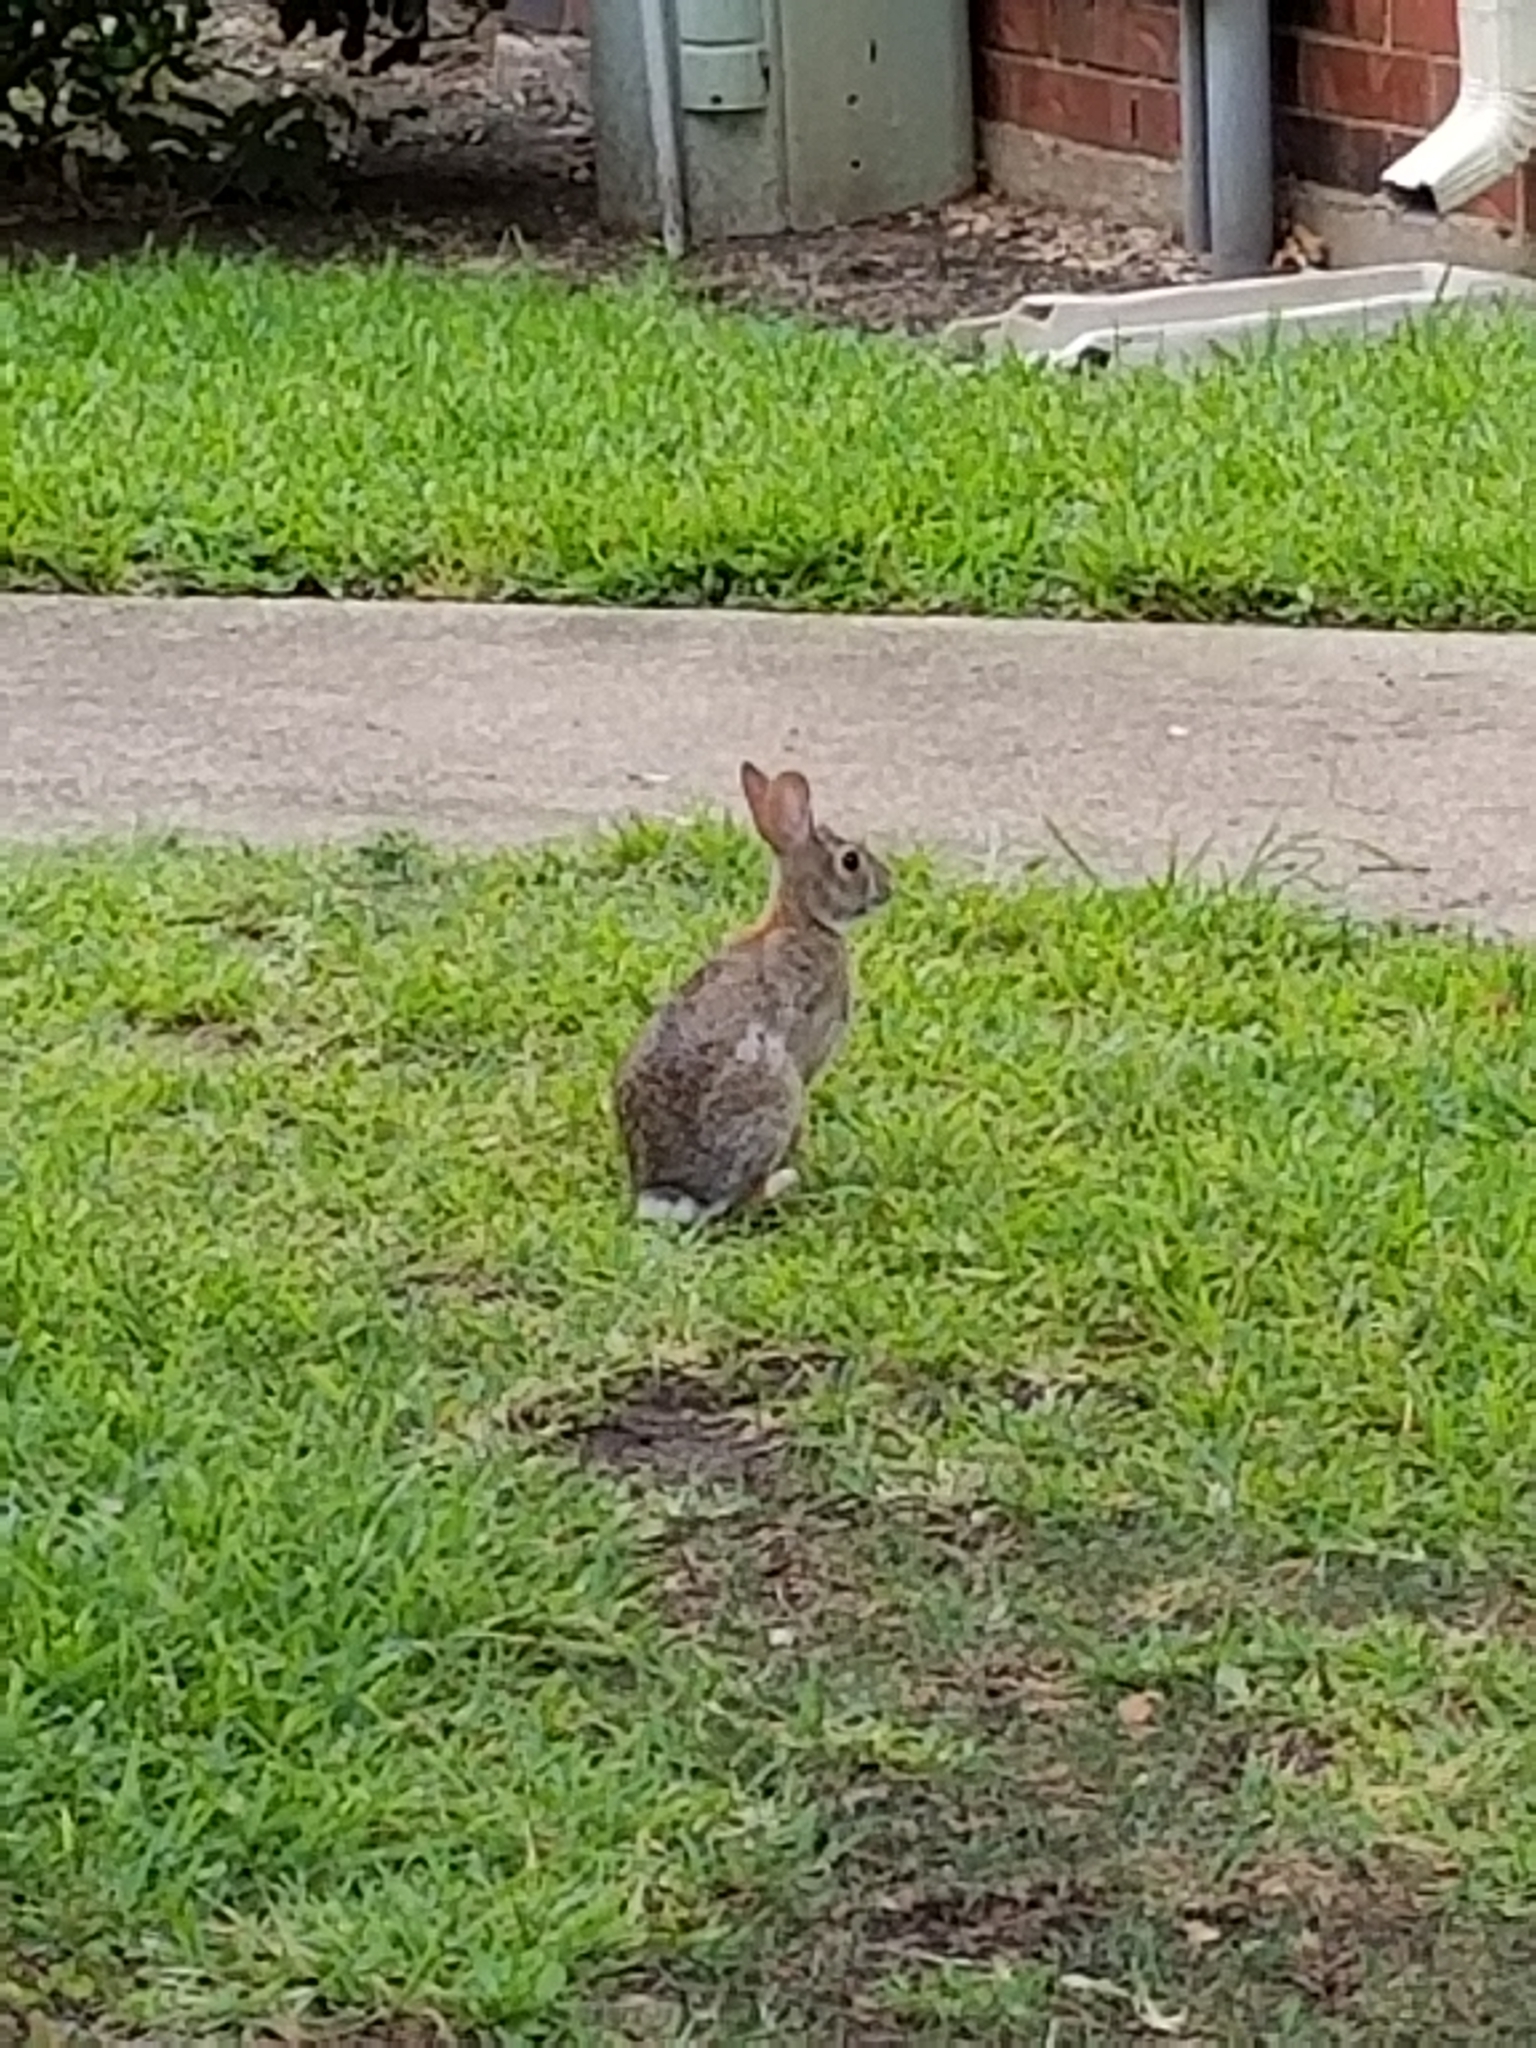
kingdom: Animalia
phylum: Chordata
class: Mammalia
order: Lagomorpha
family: Leporidae
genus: Sylvilagus
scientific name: Sylvilagus floridanus
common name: Eastern cottontail
